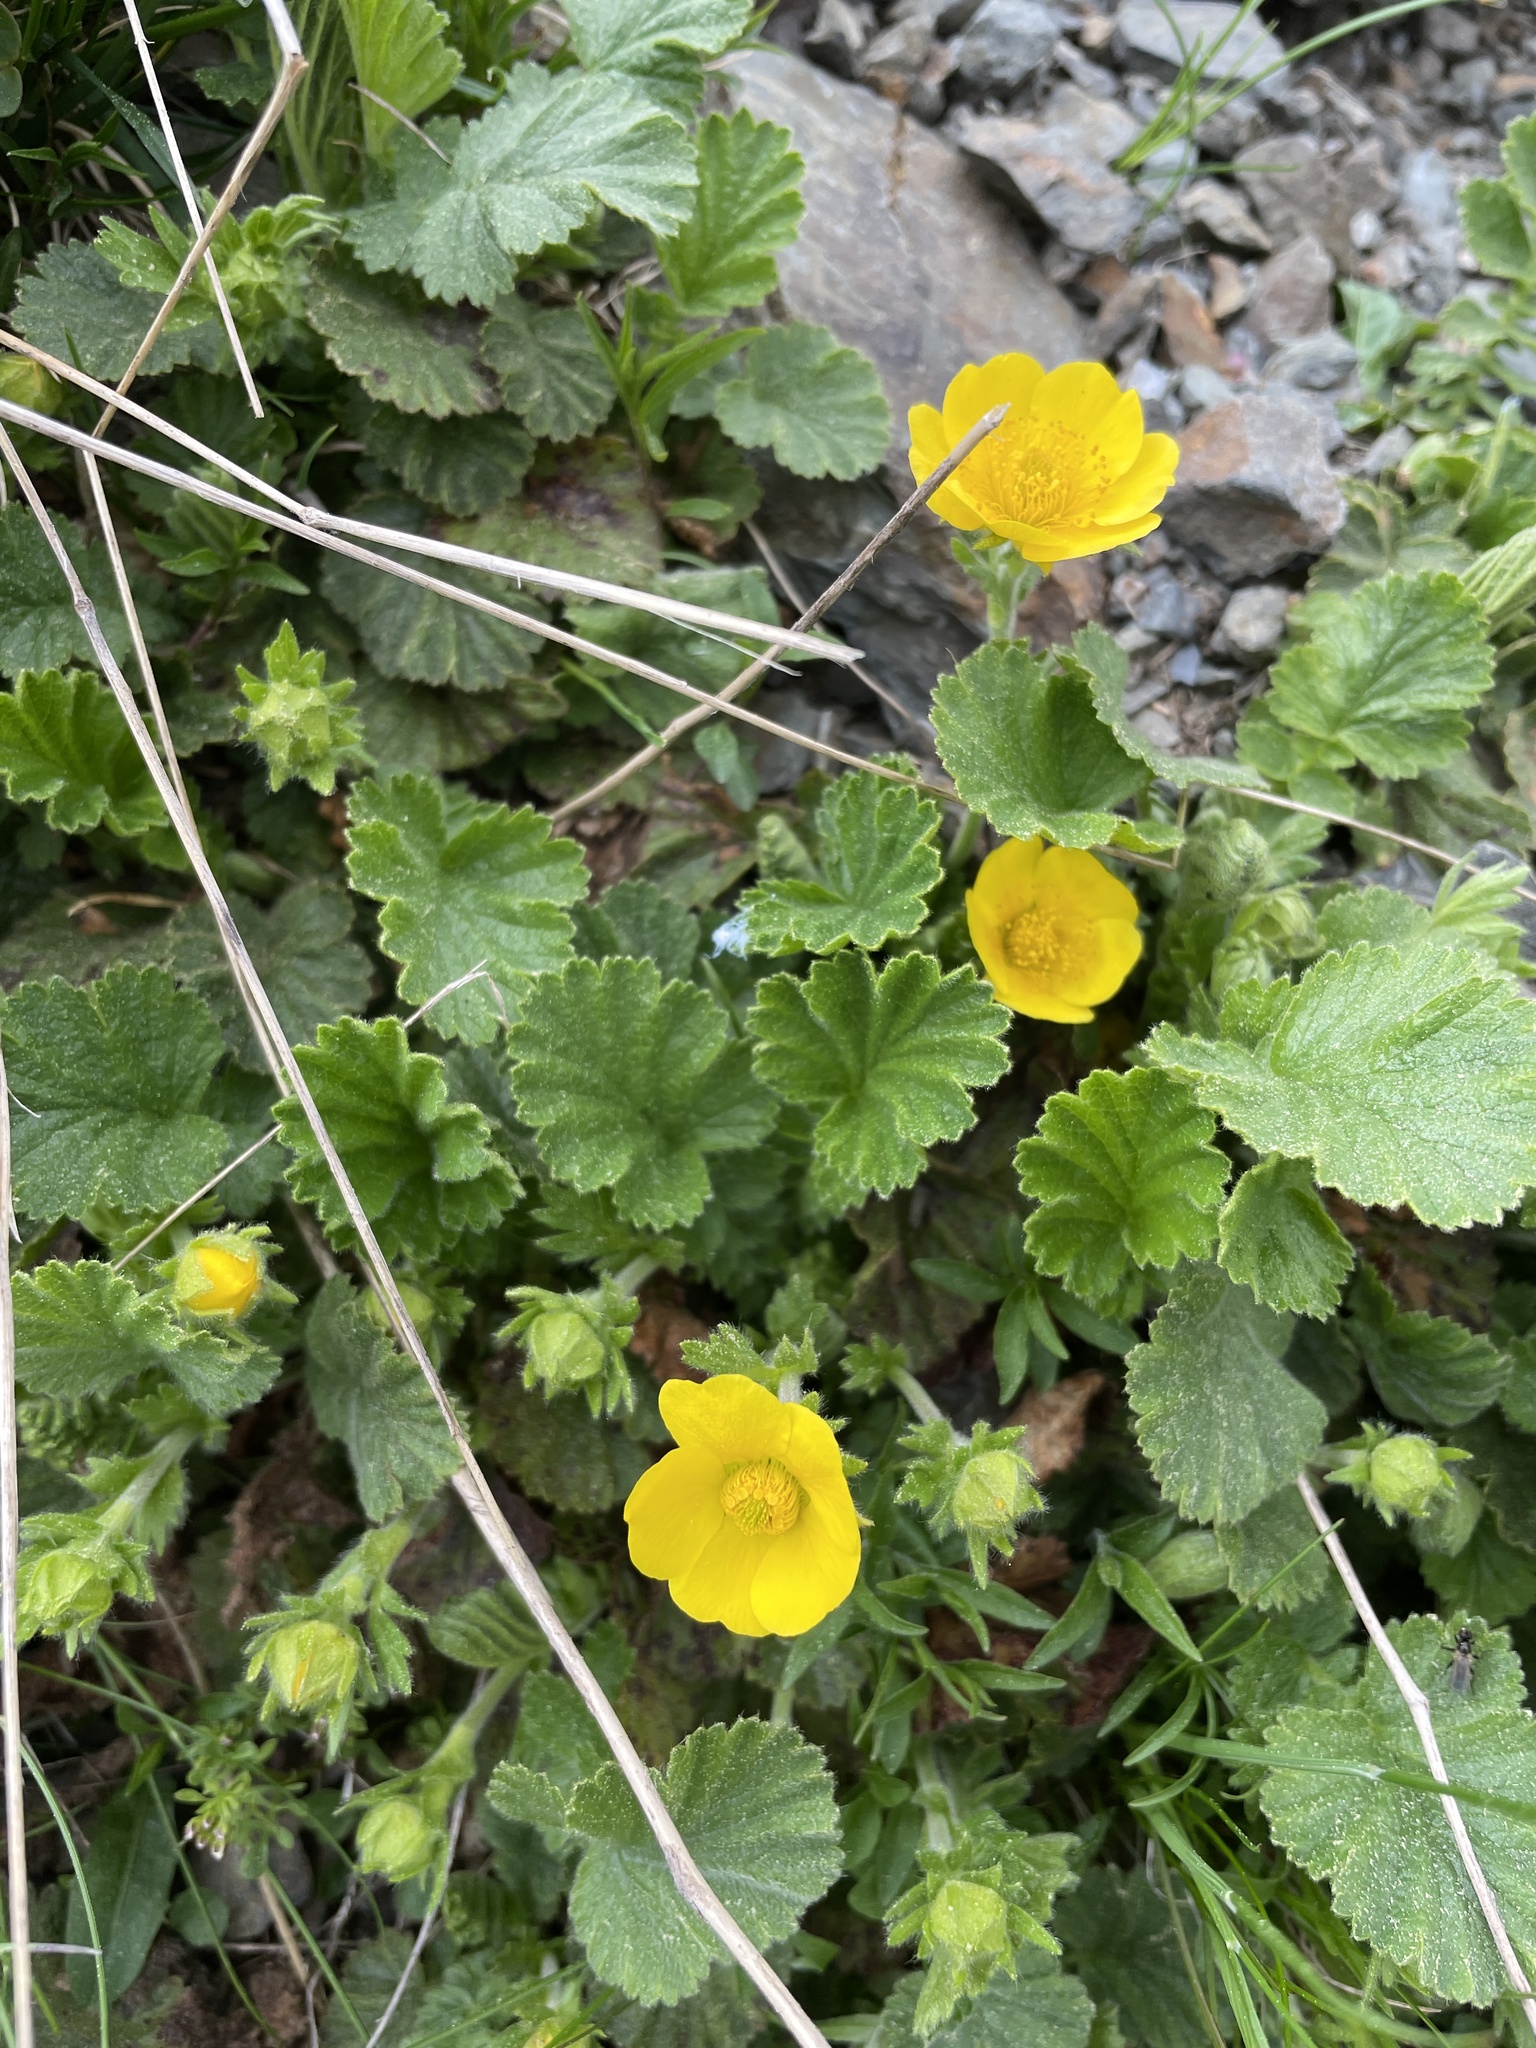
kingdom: Plantae
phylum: Tracheophyta
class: Magnoliopsida
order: Rosales
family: Rosaceae
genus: Geum
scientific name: Geum montanum
